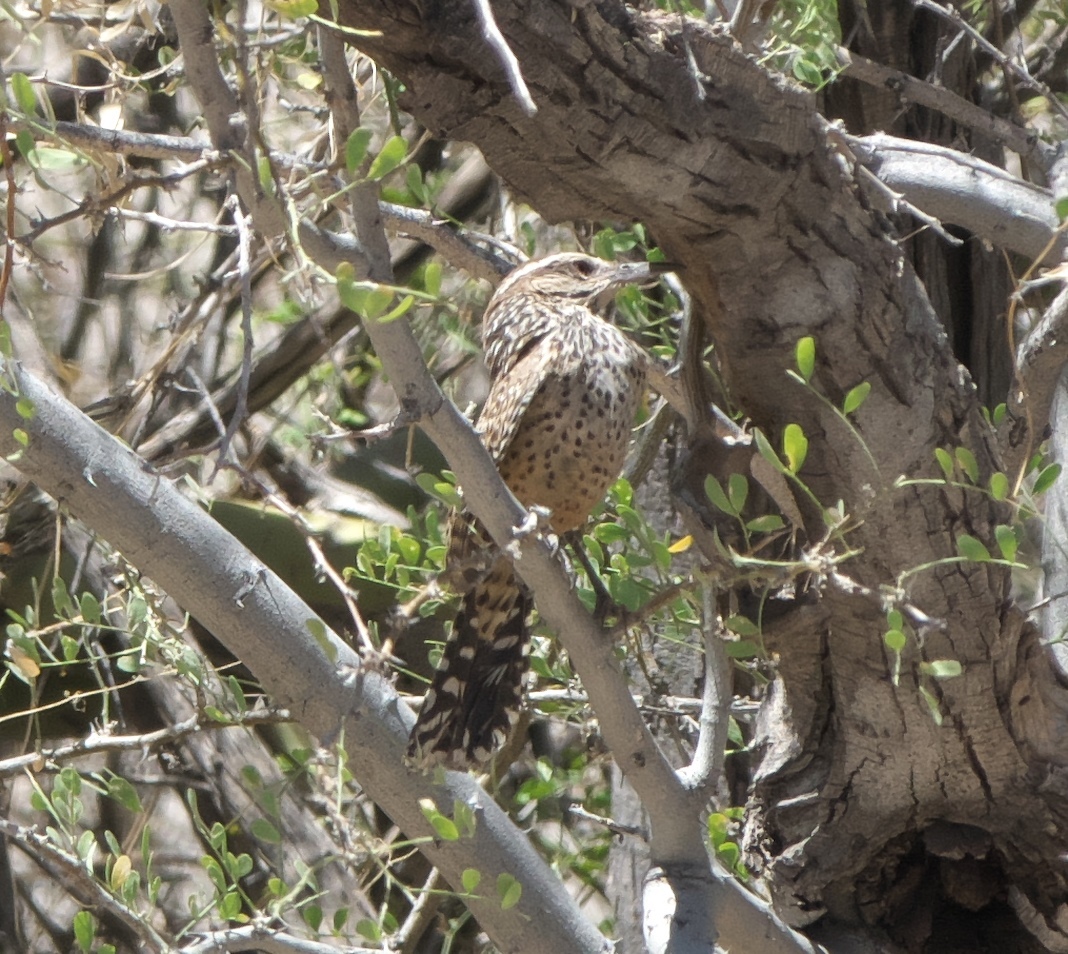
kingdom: Animalia
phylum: Chordata
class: Aves
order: Passeriformes
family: Troglodytidae
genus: Campylorhynchus
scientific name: Campylorhynchus brunneicapillus
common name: Cactus wren
